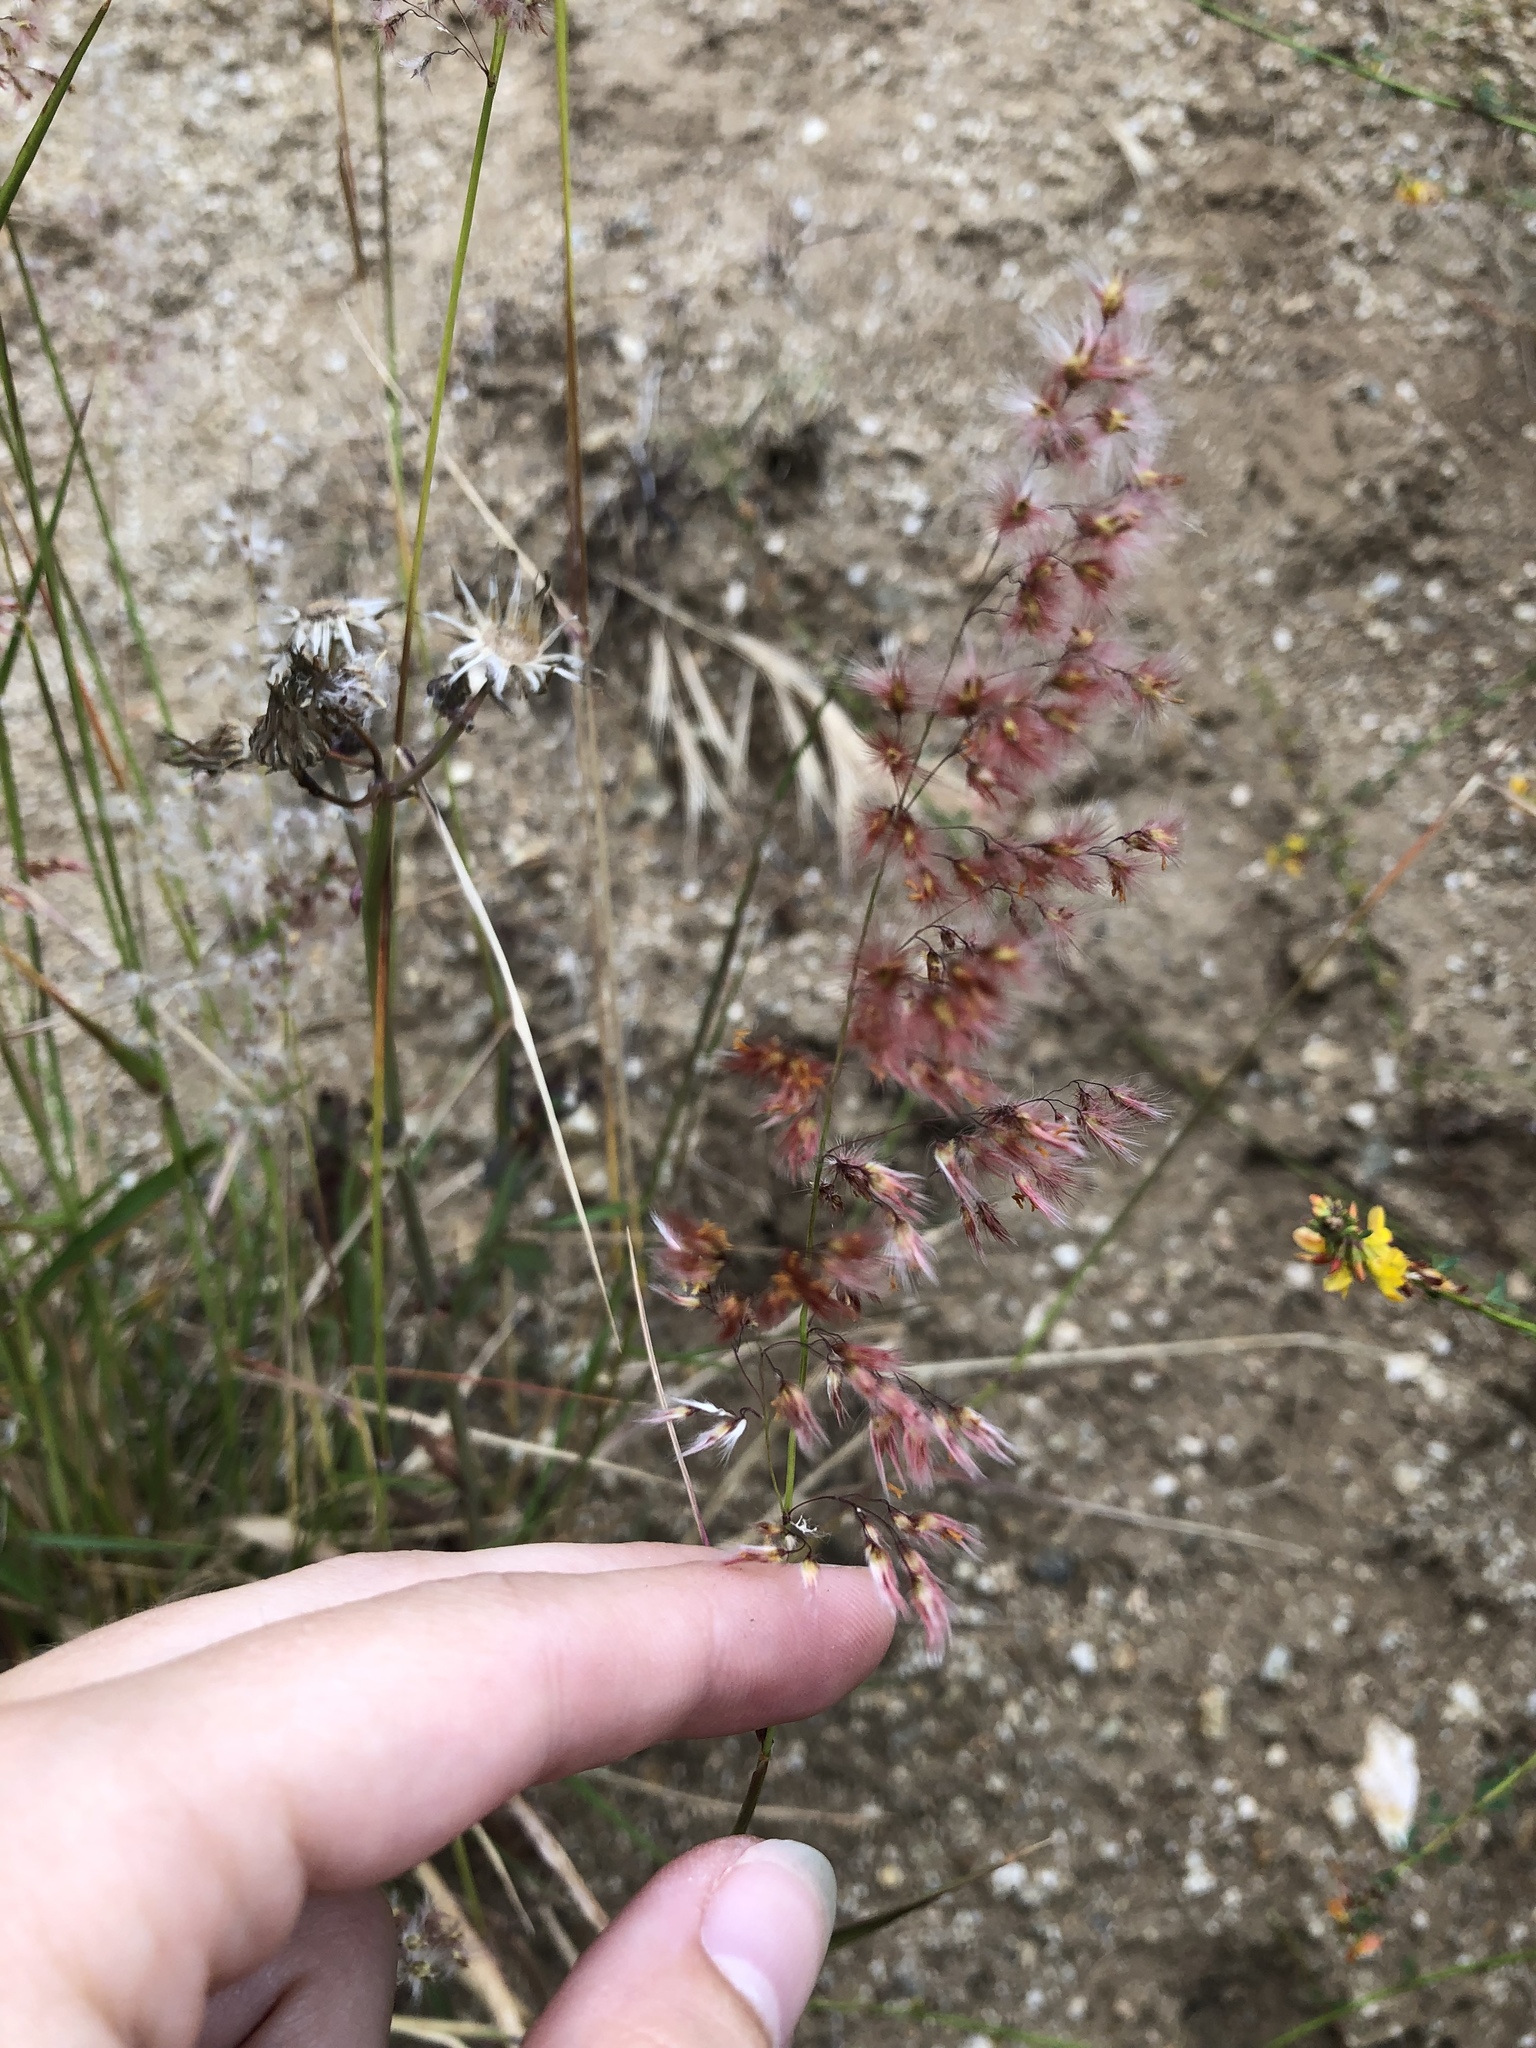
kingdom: Plantae
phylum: Tracheophyta
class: Liliopsida
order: Poales
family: Poaceae
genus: Melinis
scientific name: Melinis repens
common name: Rose natal grass
